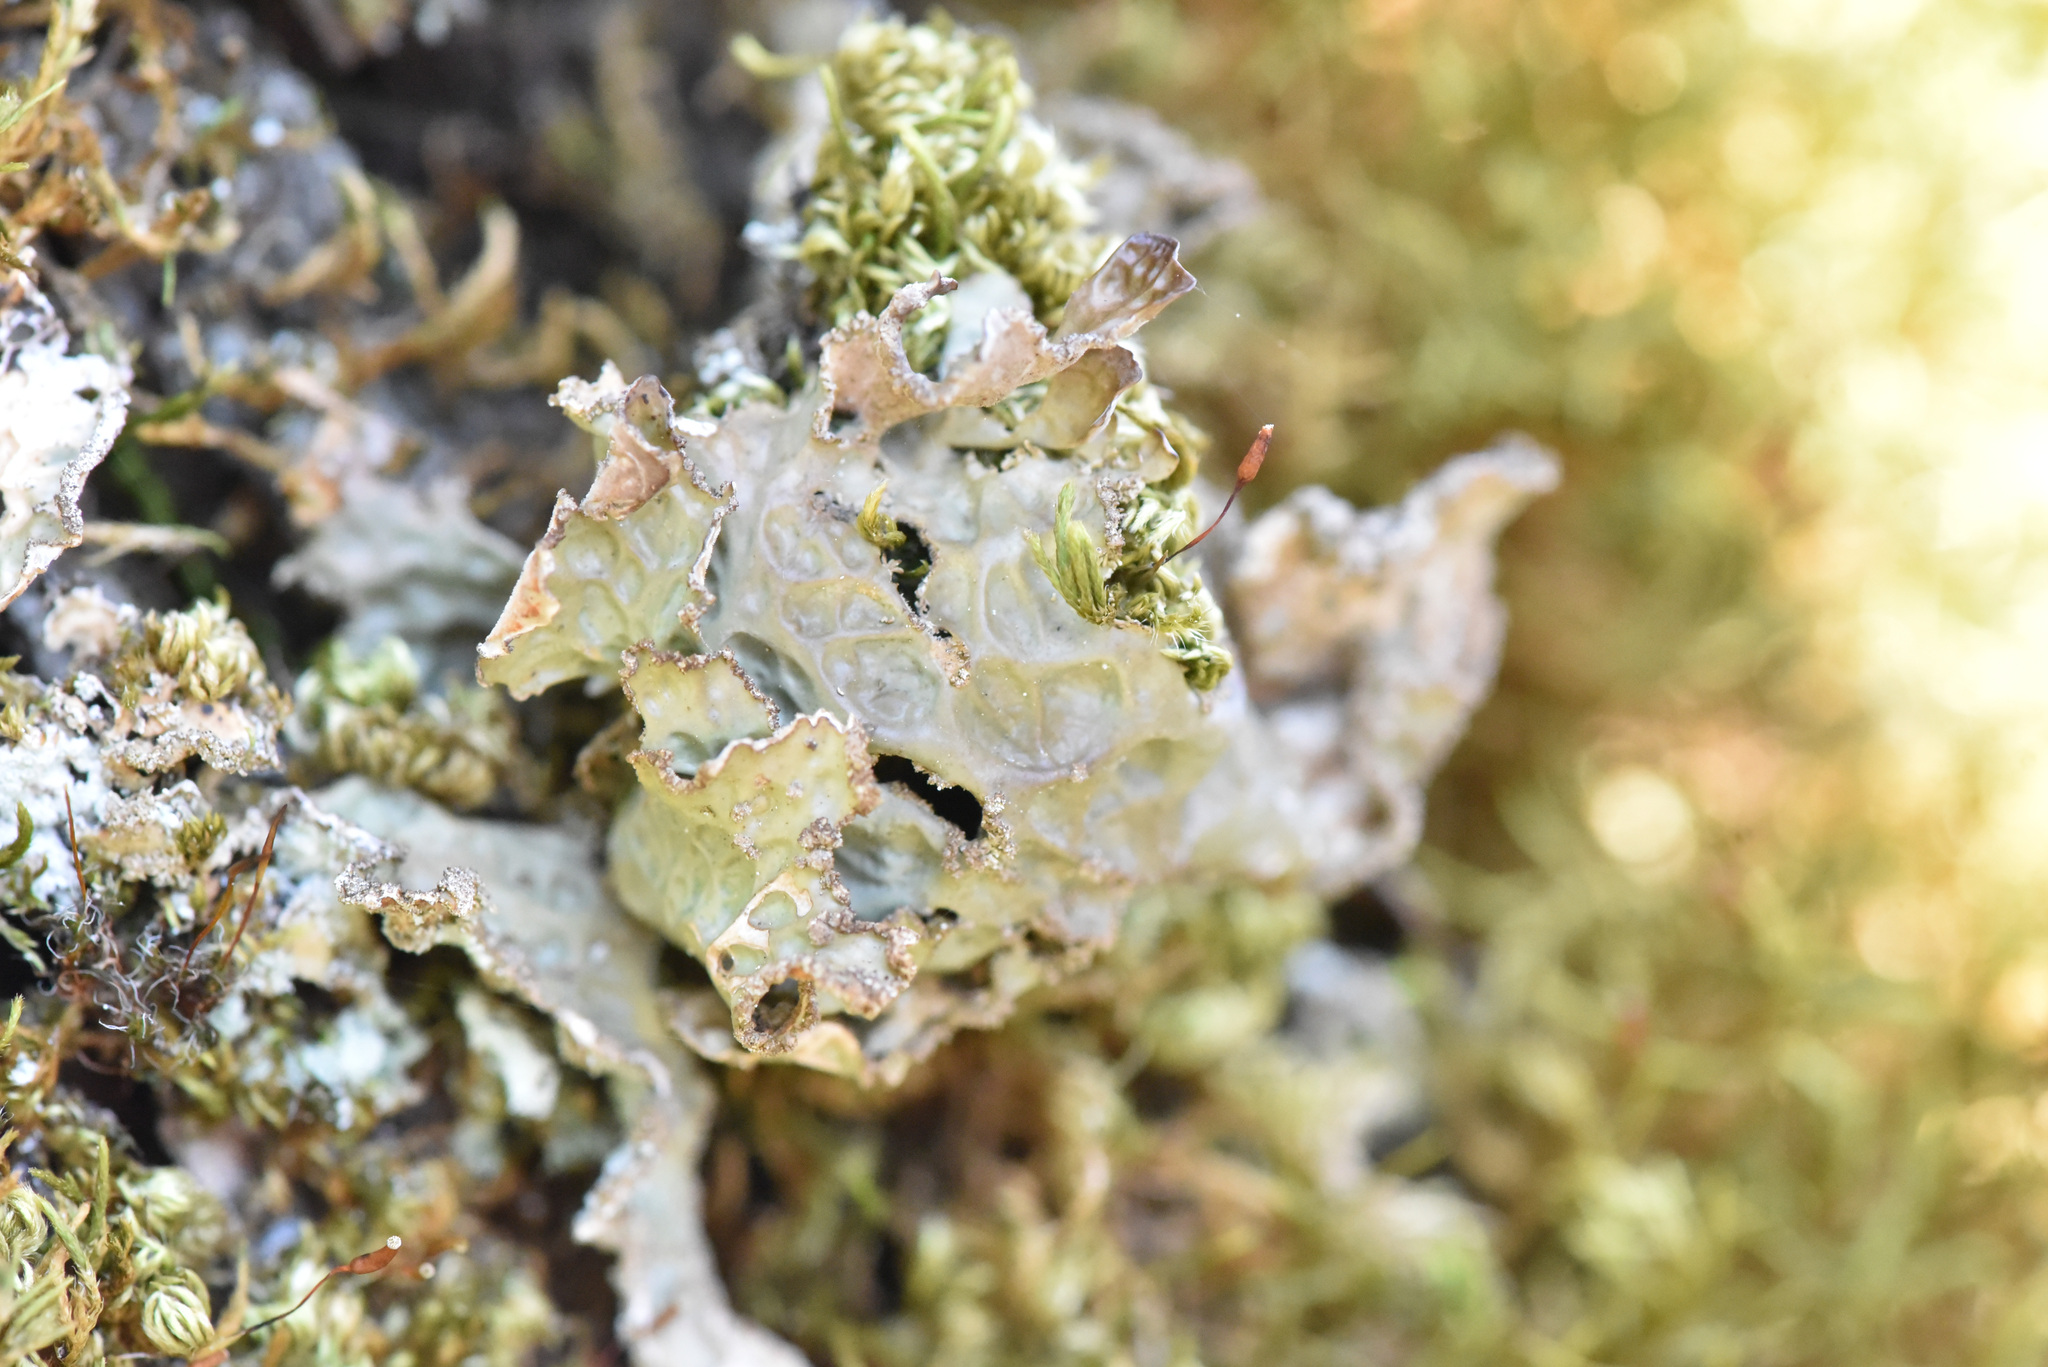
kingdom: Fungi
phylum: Ascomycota
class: Lecanoromycetes
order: Peltigerales
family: Lobariaceae
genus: Lobaria
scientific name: Lobaria pulmonaria
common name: Lungwort
